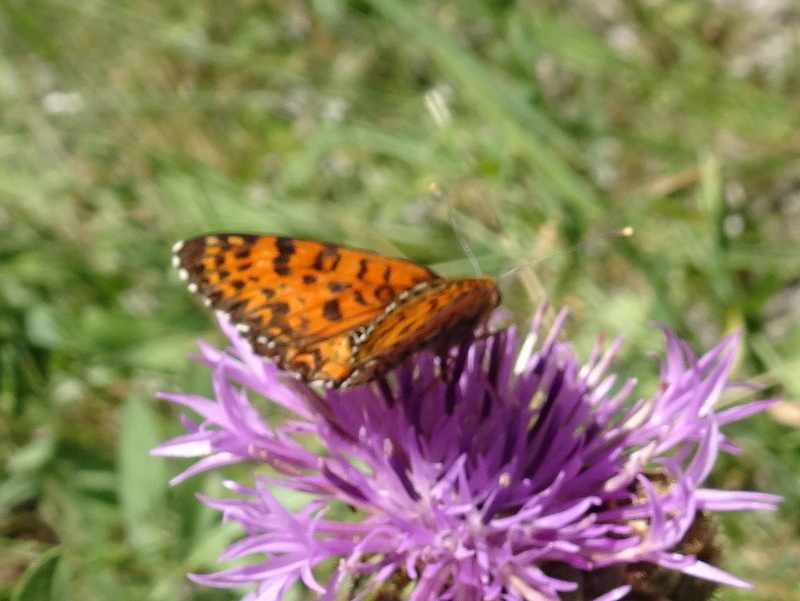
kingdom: Animalia
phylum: Arthropoda
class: Insecta
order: Lepidoptera
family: Nymphalidae
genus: Melitaea
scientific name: Melitaea didyma
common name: Spotted fritillary
